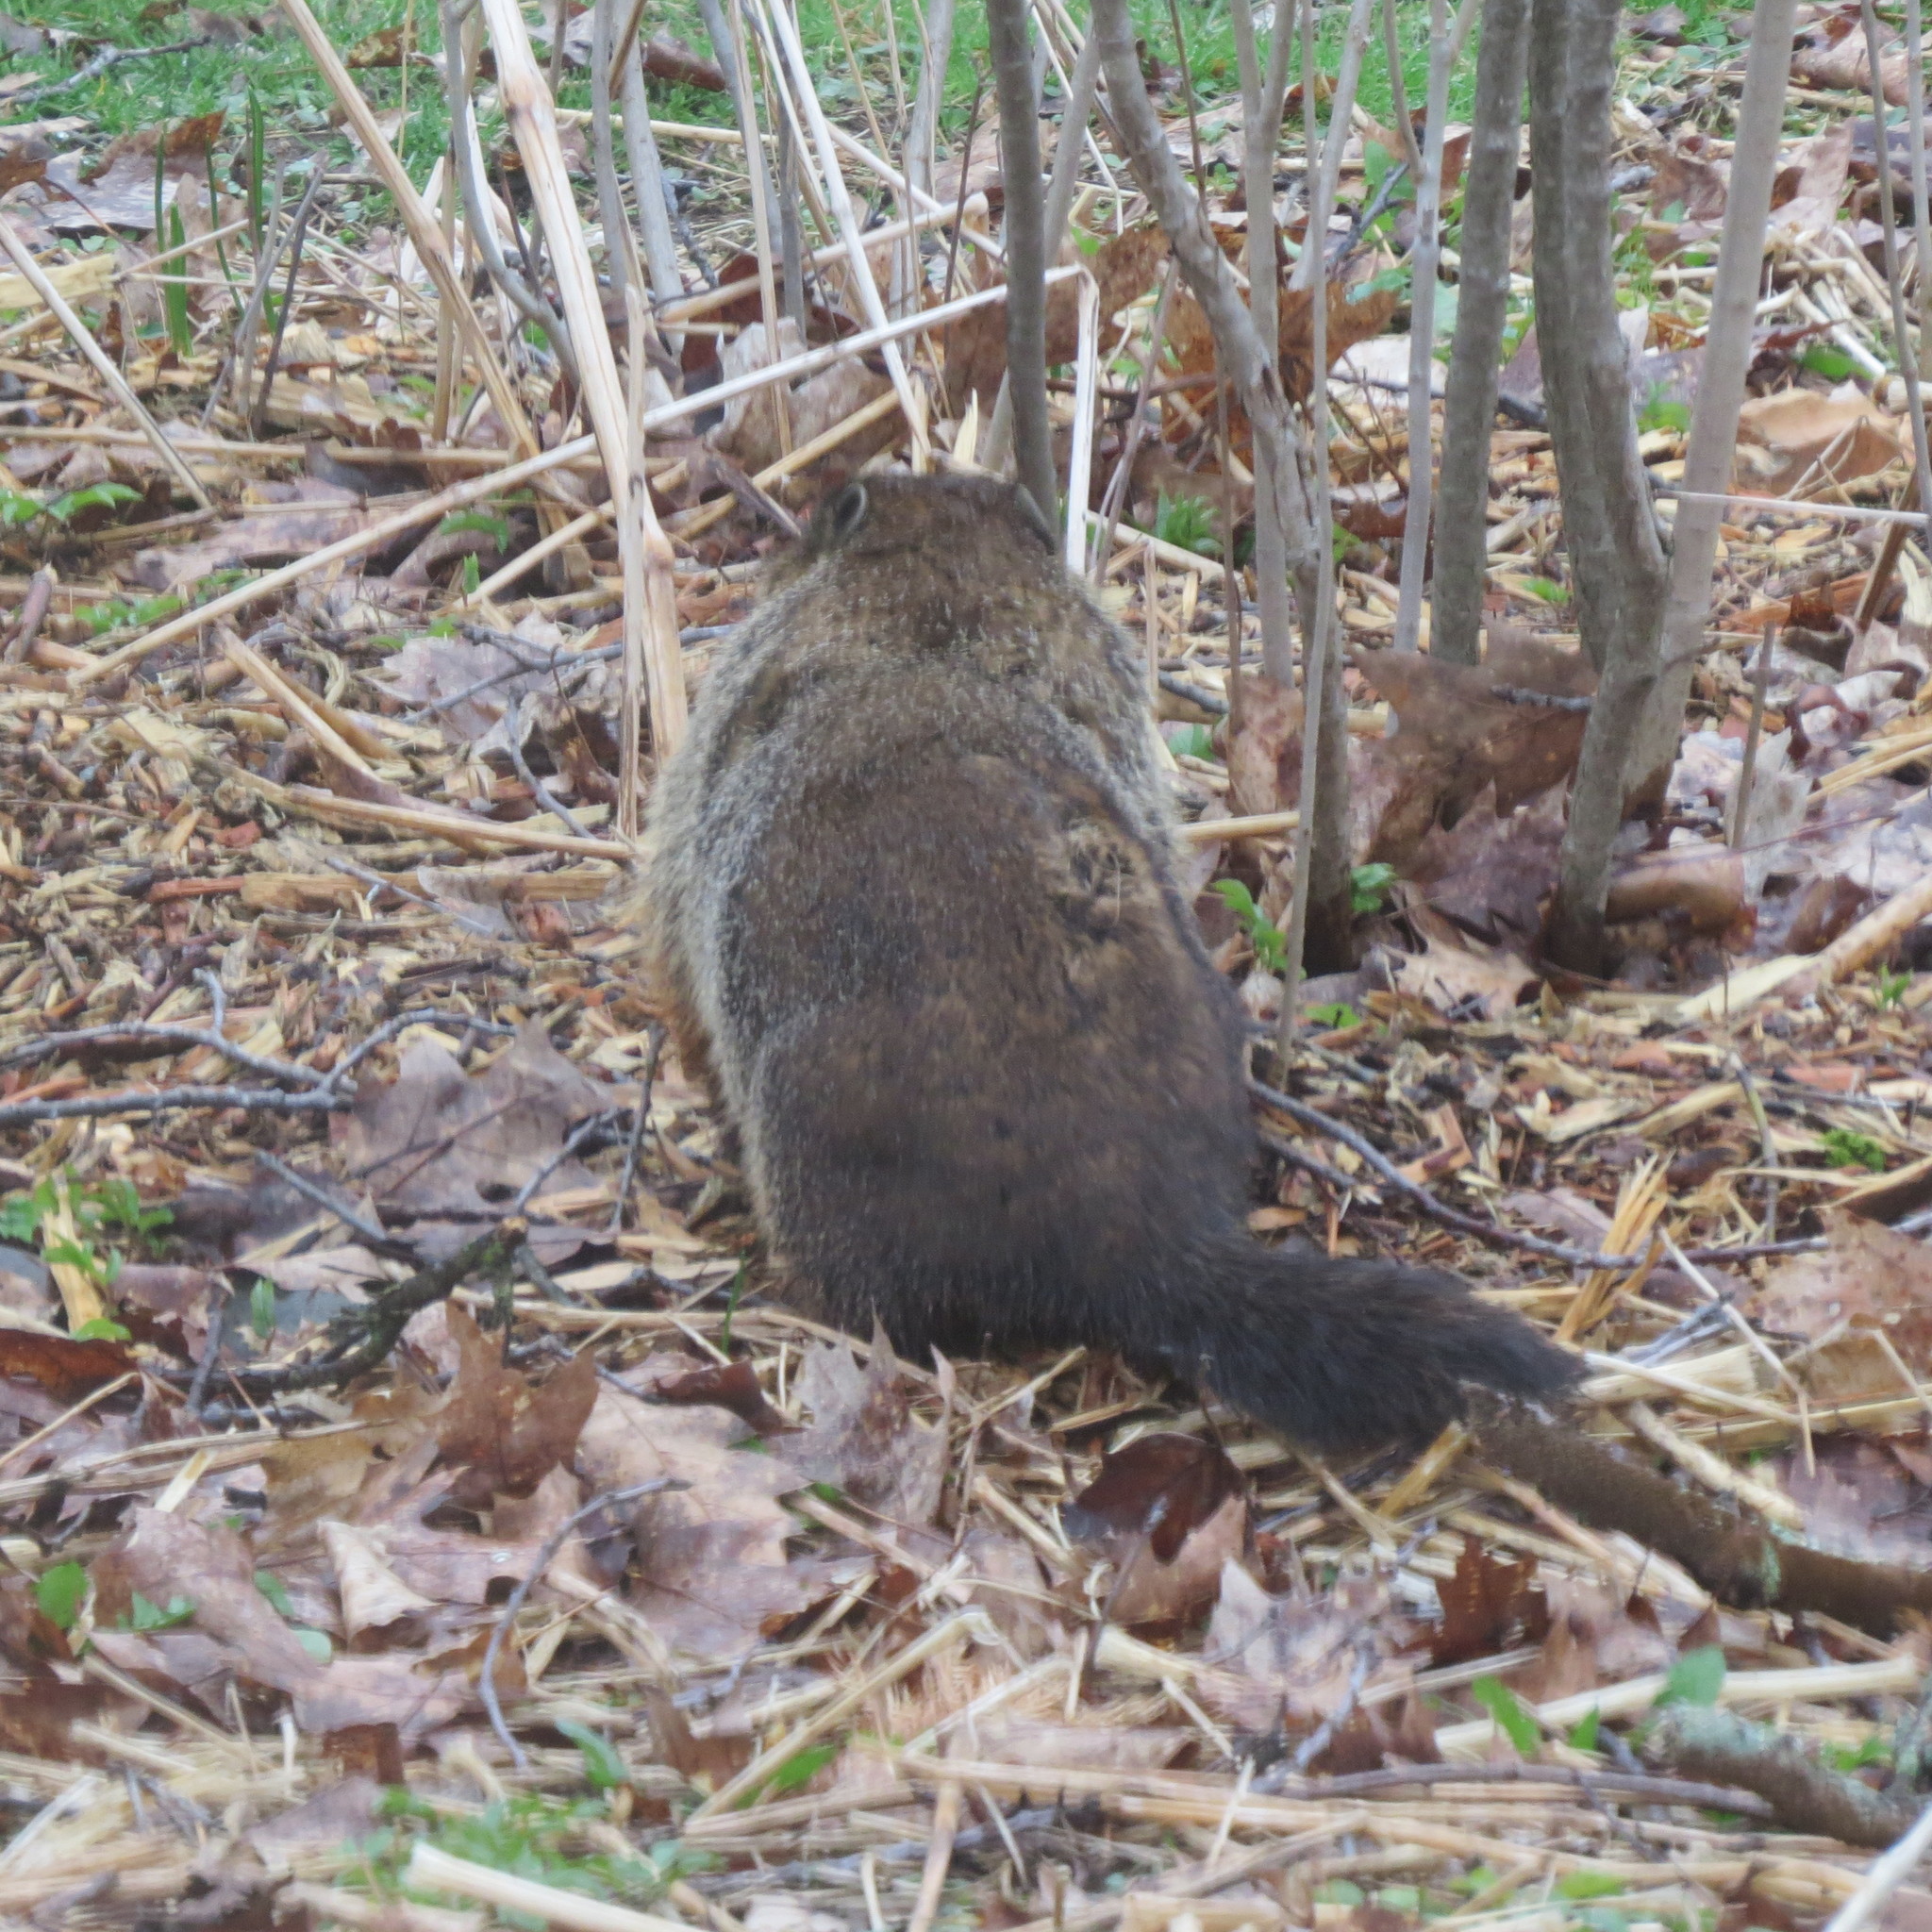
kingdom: Animalia
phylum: Chordata
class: Mammalia
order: Rodentia
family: Sciuridae
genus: Marmota
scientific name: Marmota monax
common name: Groundhog
